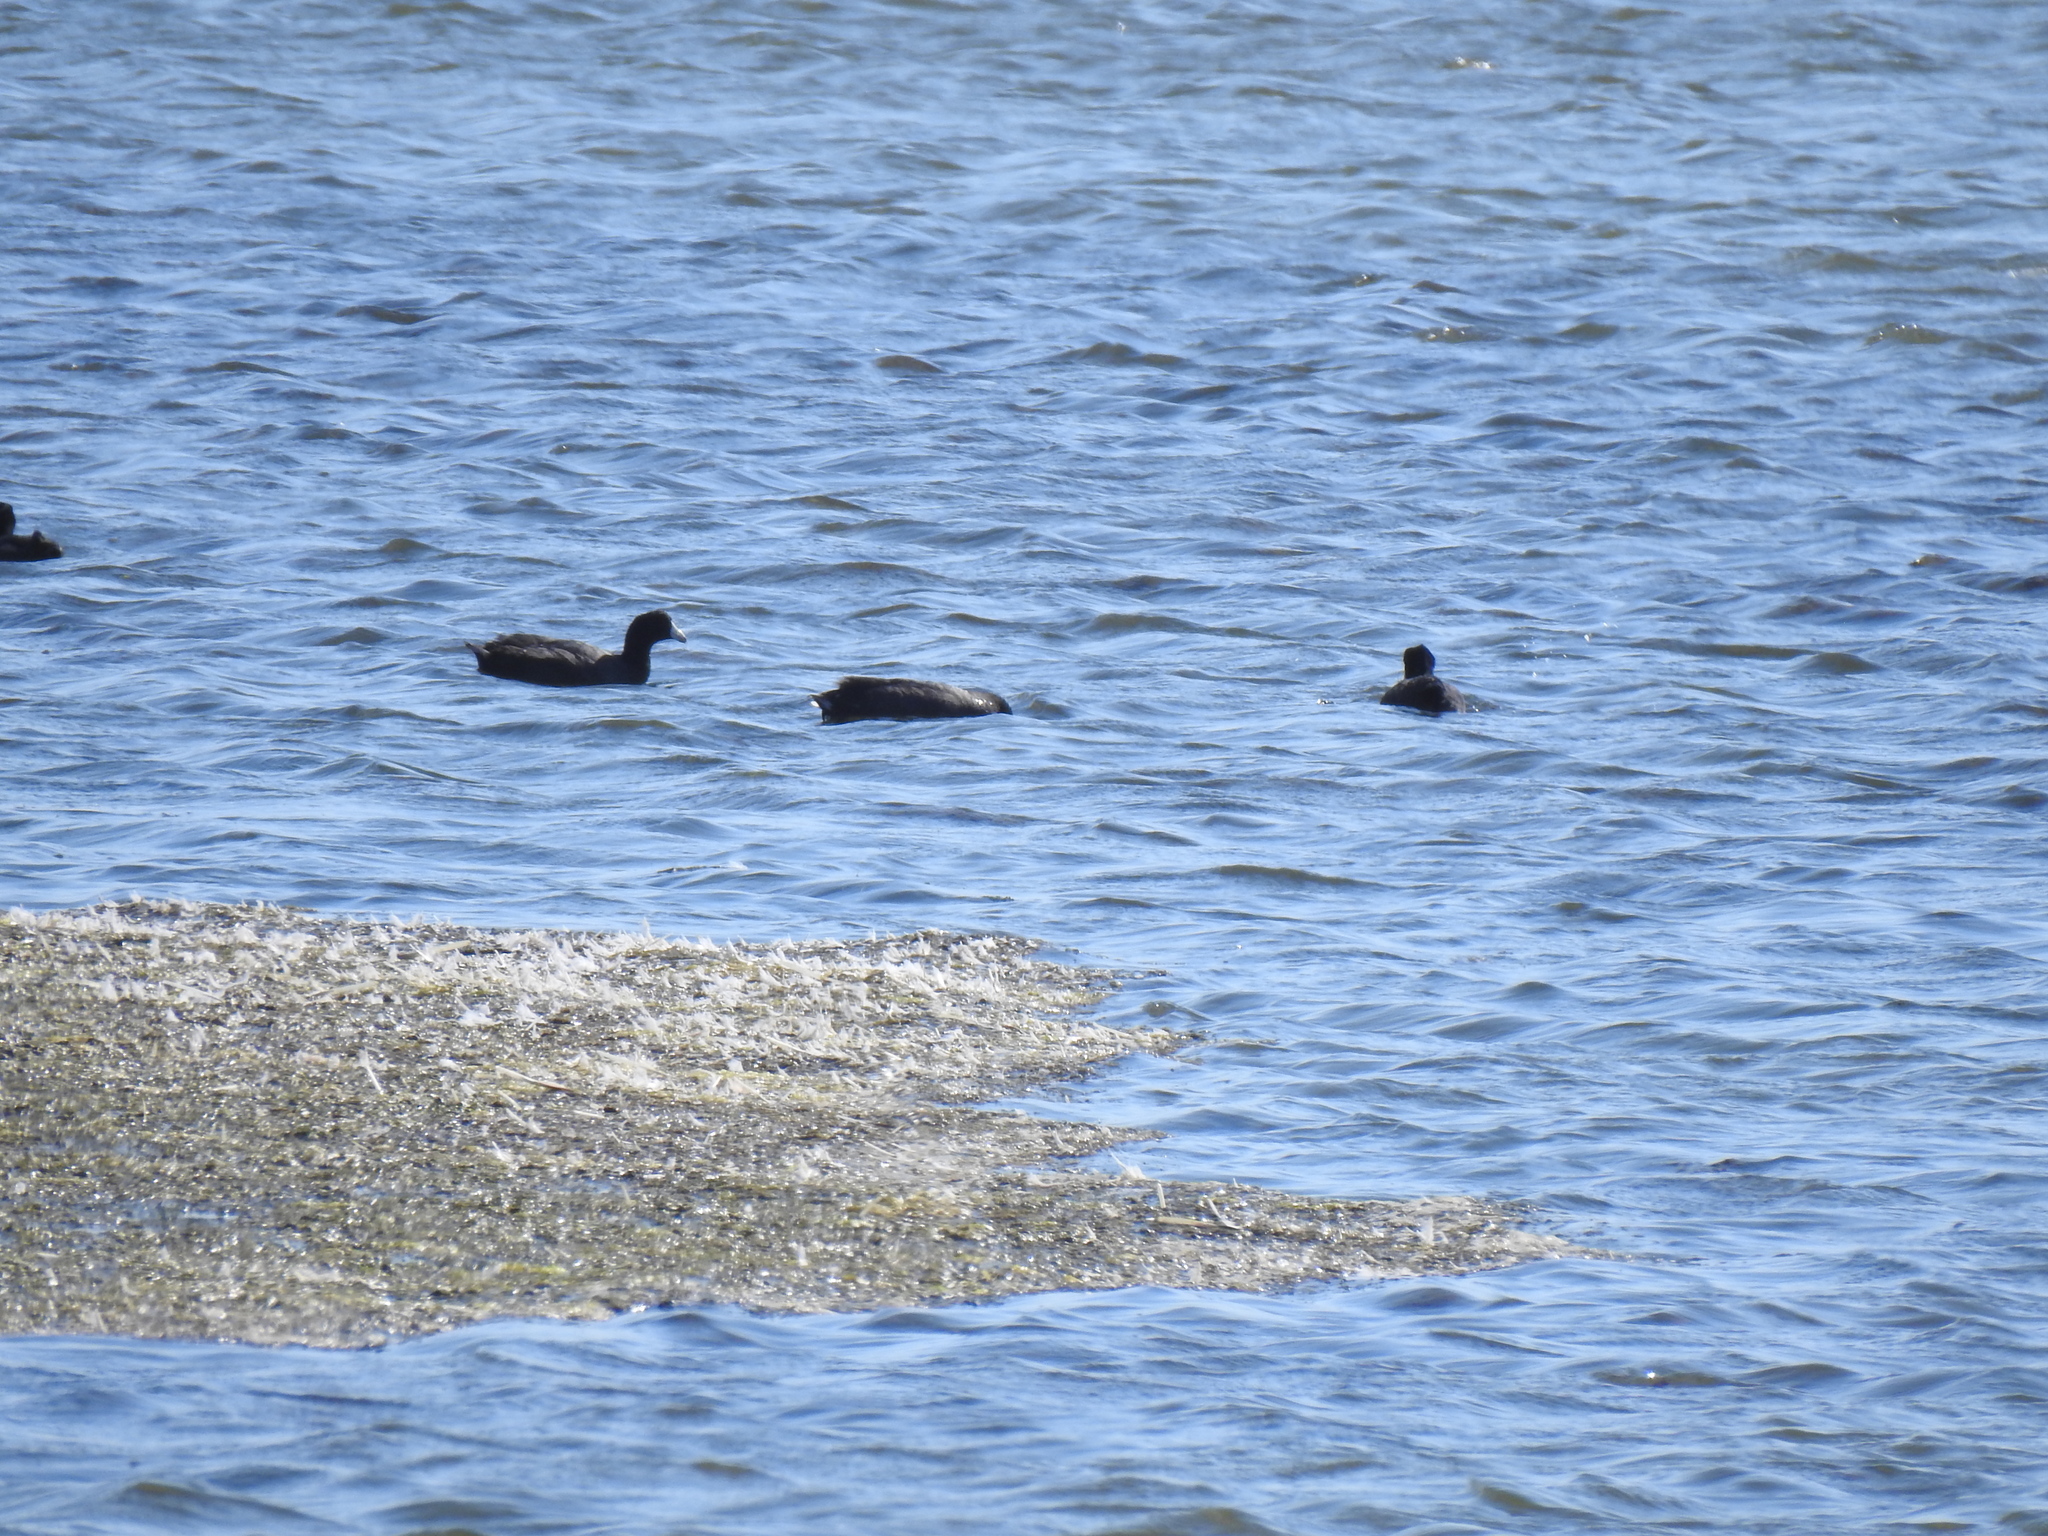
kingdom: Animalia
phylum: Chordata
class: Aves
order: Gruiformes
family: Rallidae
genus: Fulica
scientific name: Fulica americana
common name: American coot
